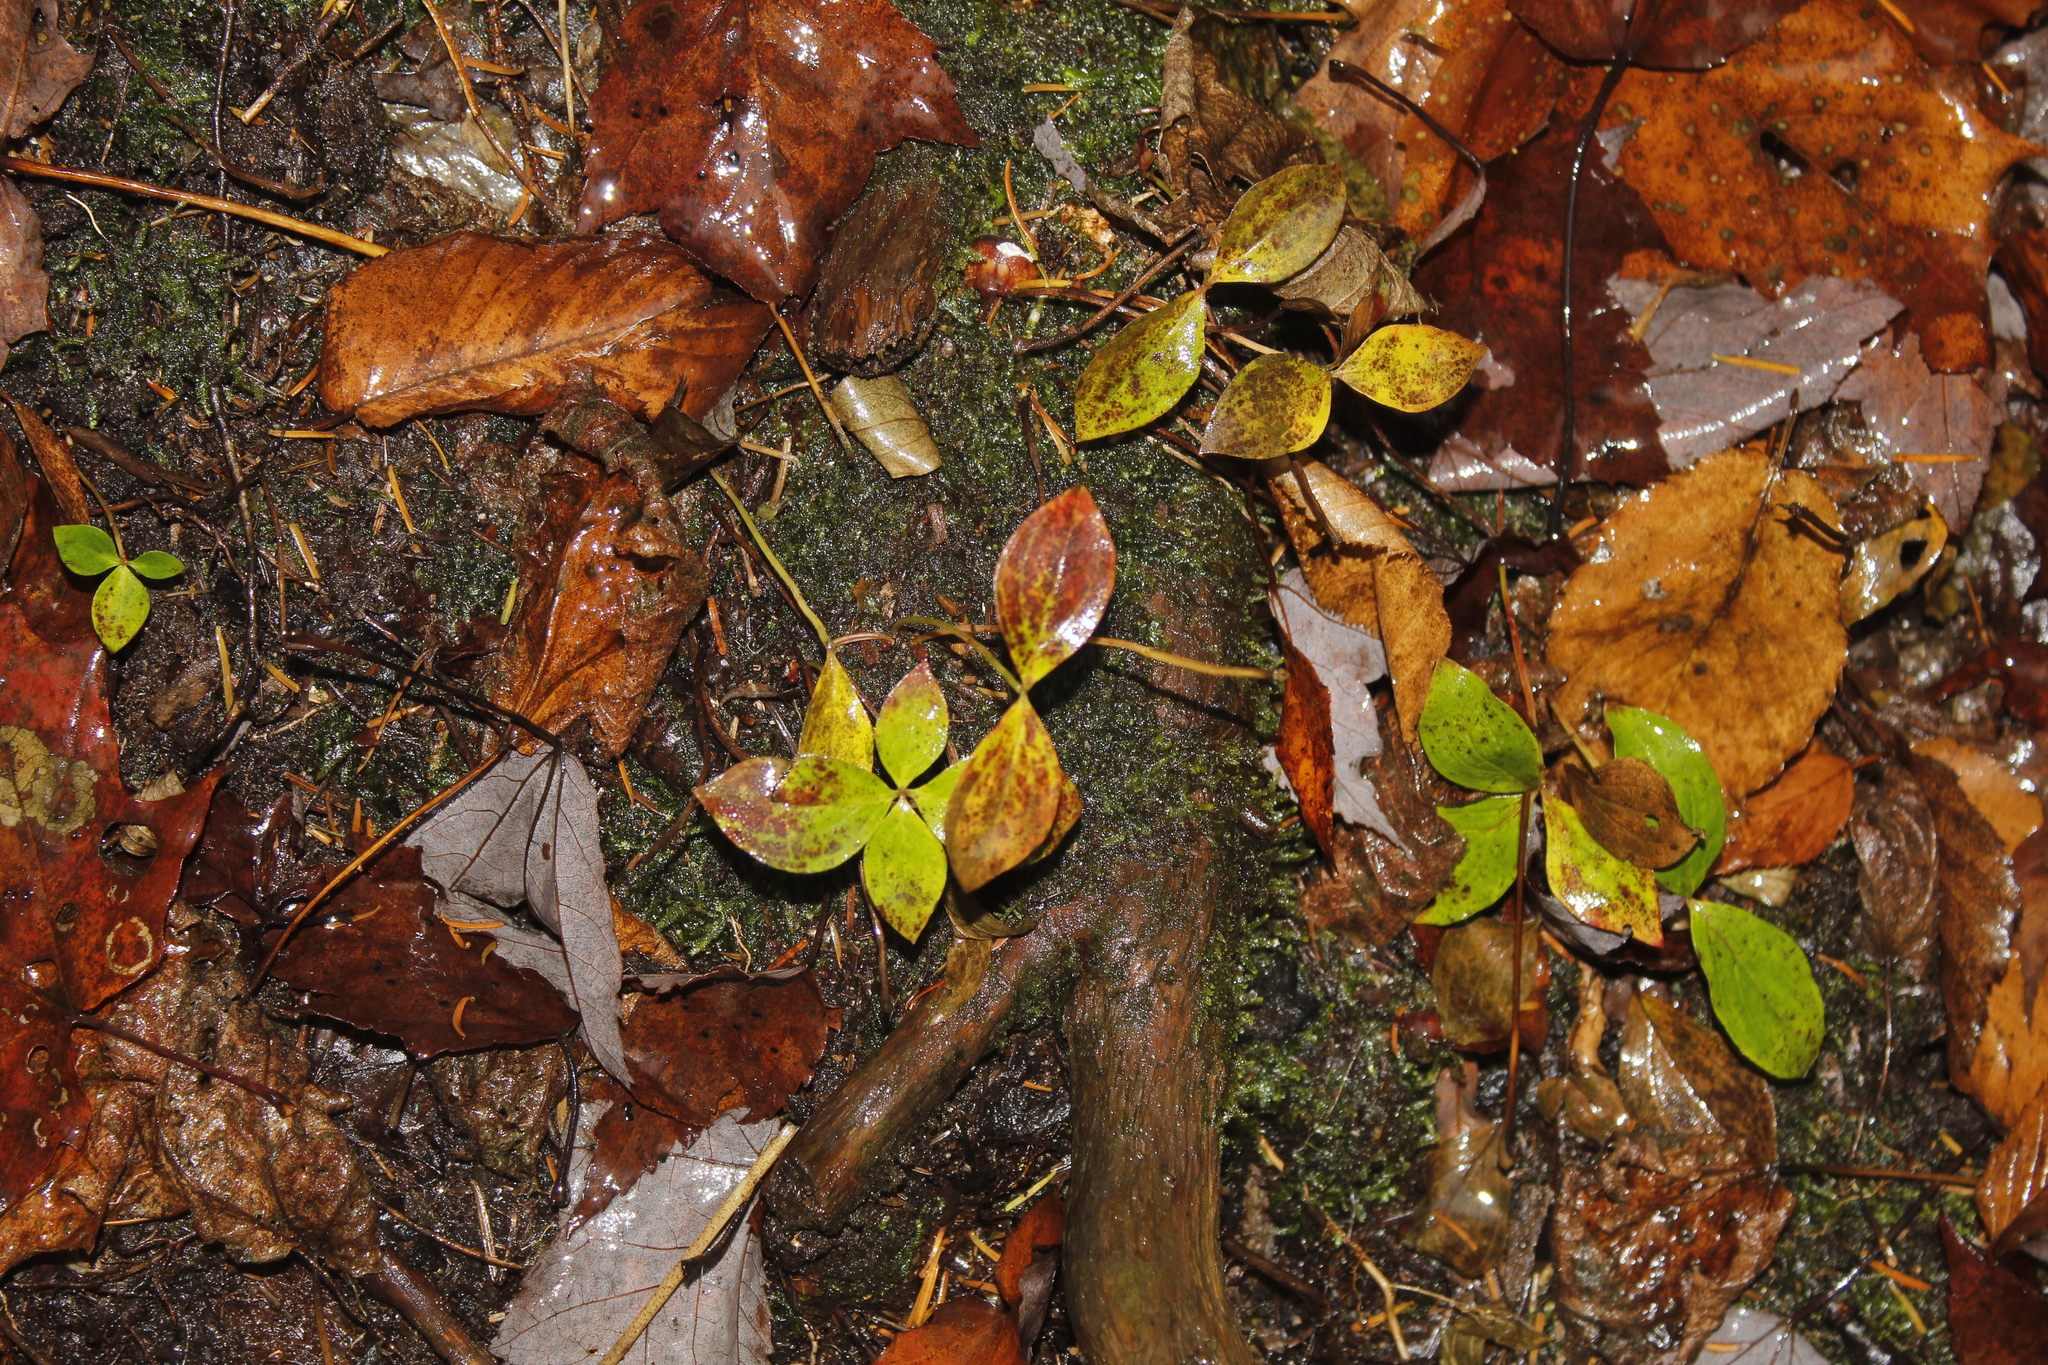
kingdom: Plantae
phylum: Tracheophyta
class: Magnoliopsida
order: Cornales
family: Cornaceae
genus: Cornus
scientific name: Cornus canadensis
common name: Creeping dogwood
